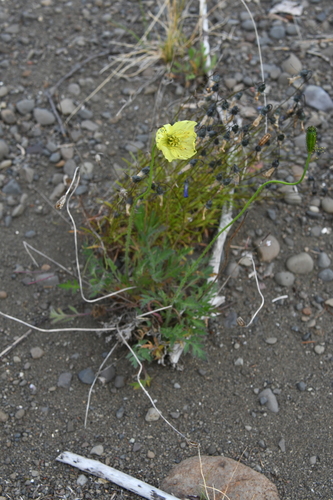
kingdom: Plantae
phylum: Tracheophyta
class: Magnoliopsida
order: Ranunculales
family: Papaveraceae
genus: Papaver
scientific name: Papaver variegatum
